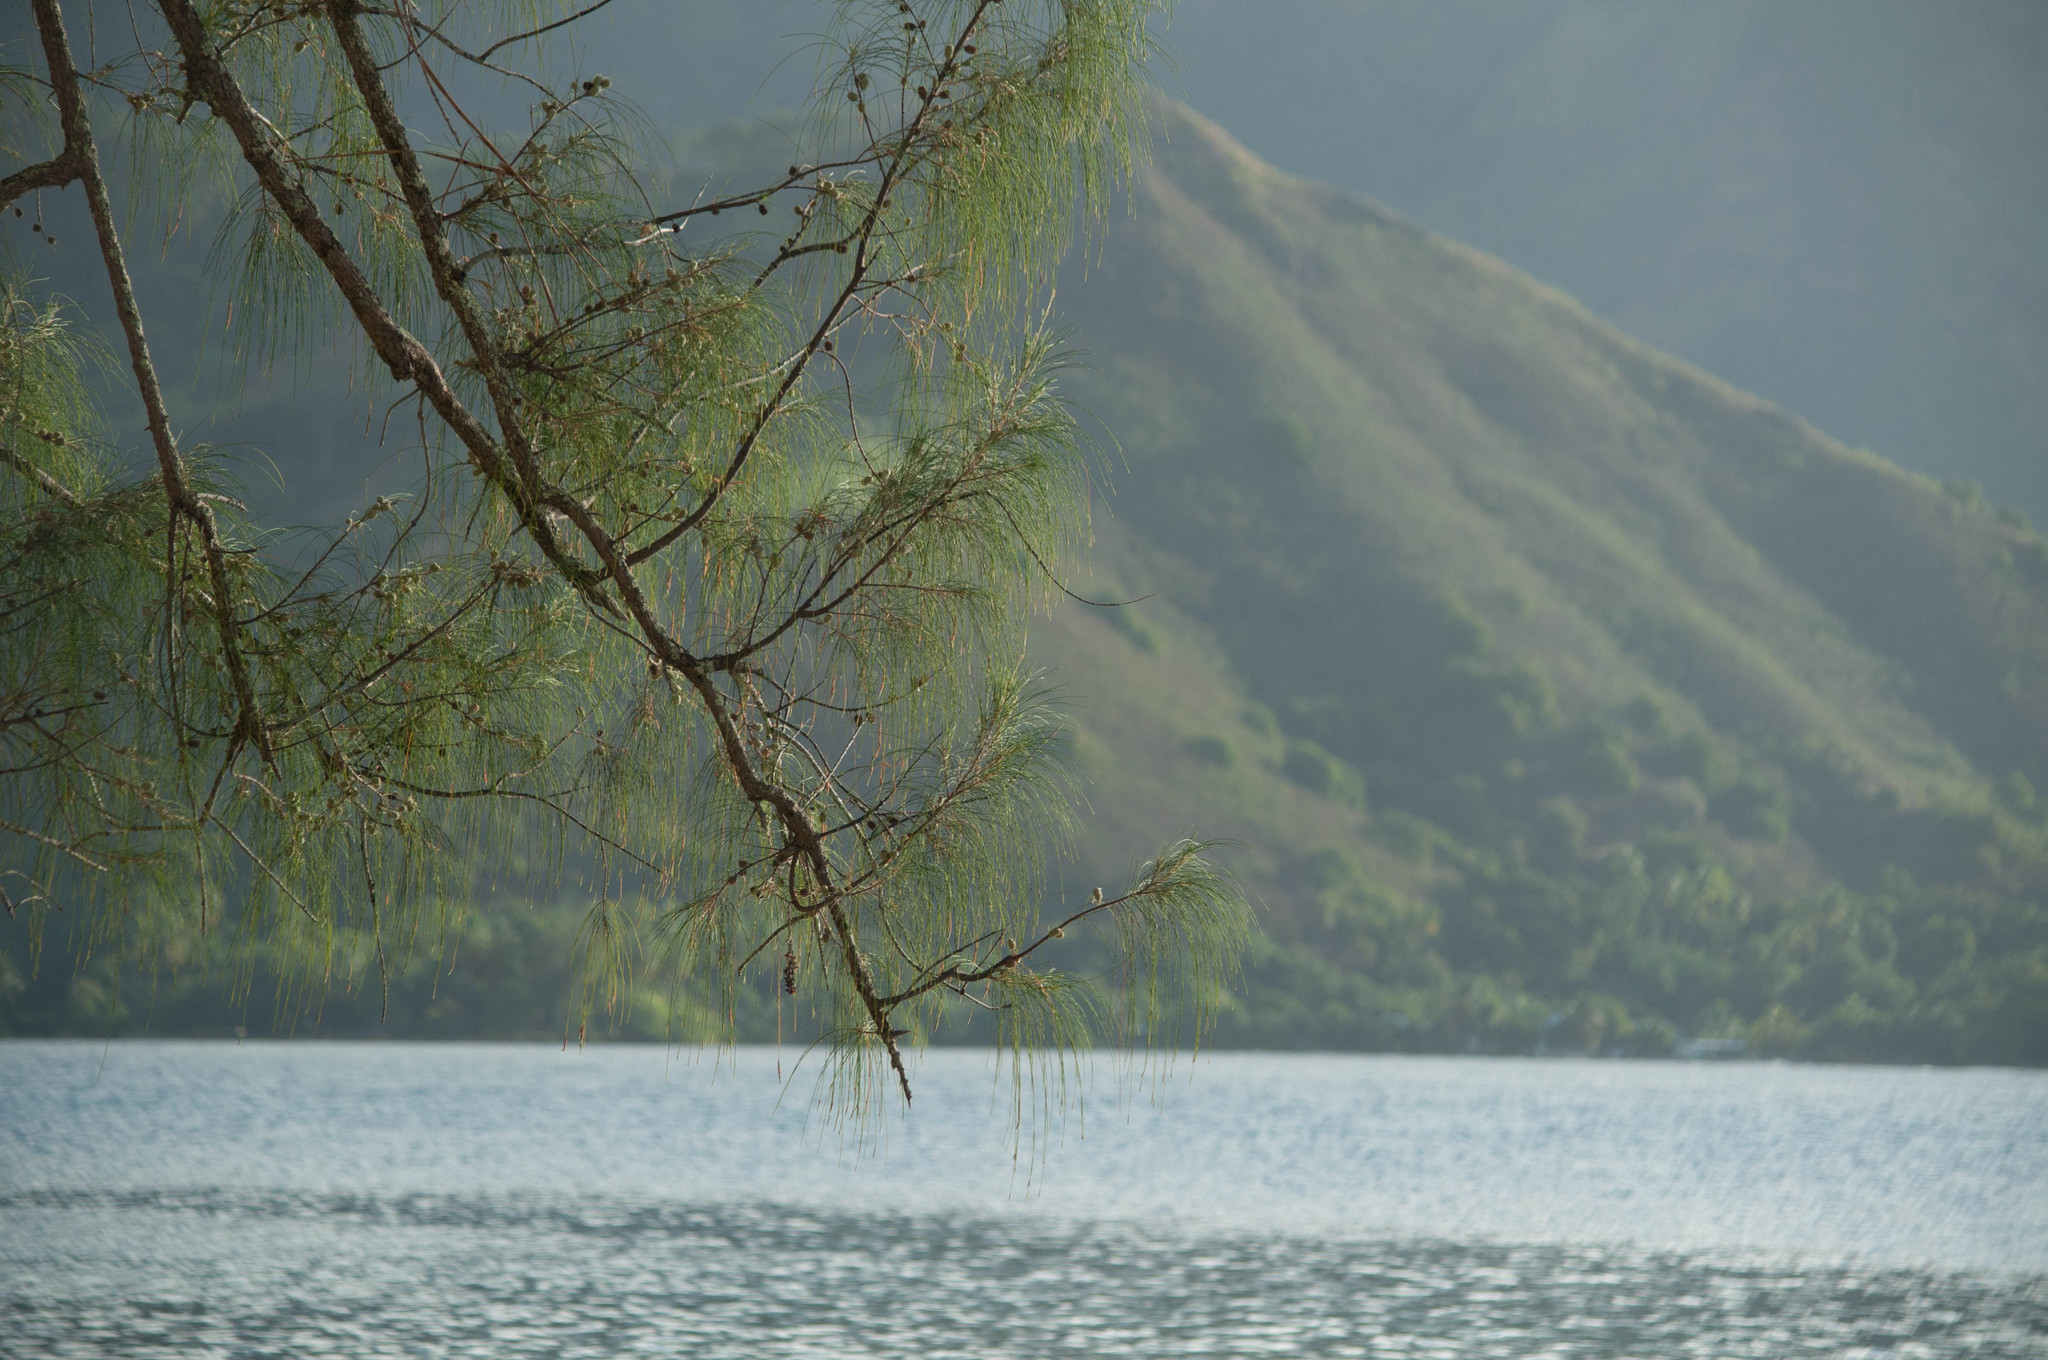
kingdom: Plantae
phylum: Tracheophyta
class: Magnoliopsida
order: Fagales
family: Casuarinaceae
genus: Casuarina
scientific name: Casuarina equisetifolia
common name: Beach sheoak
